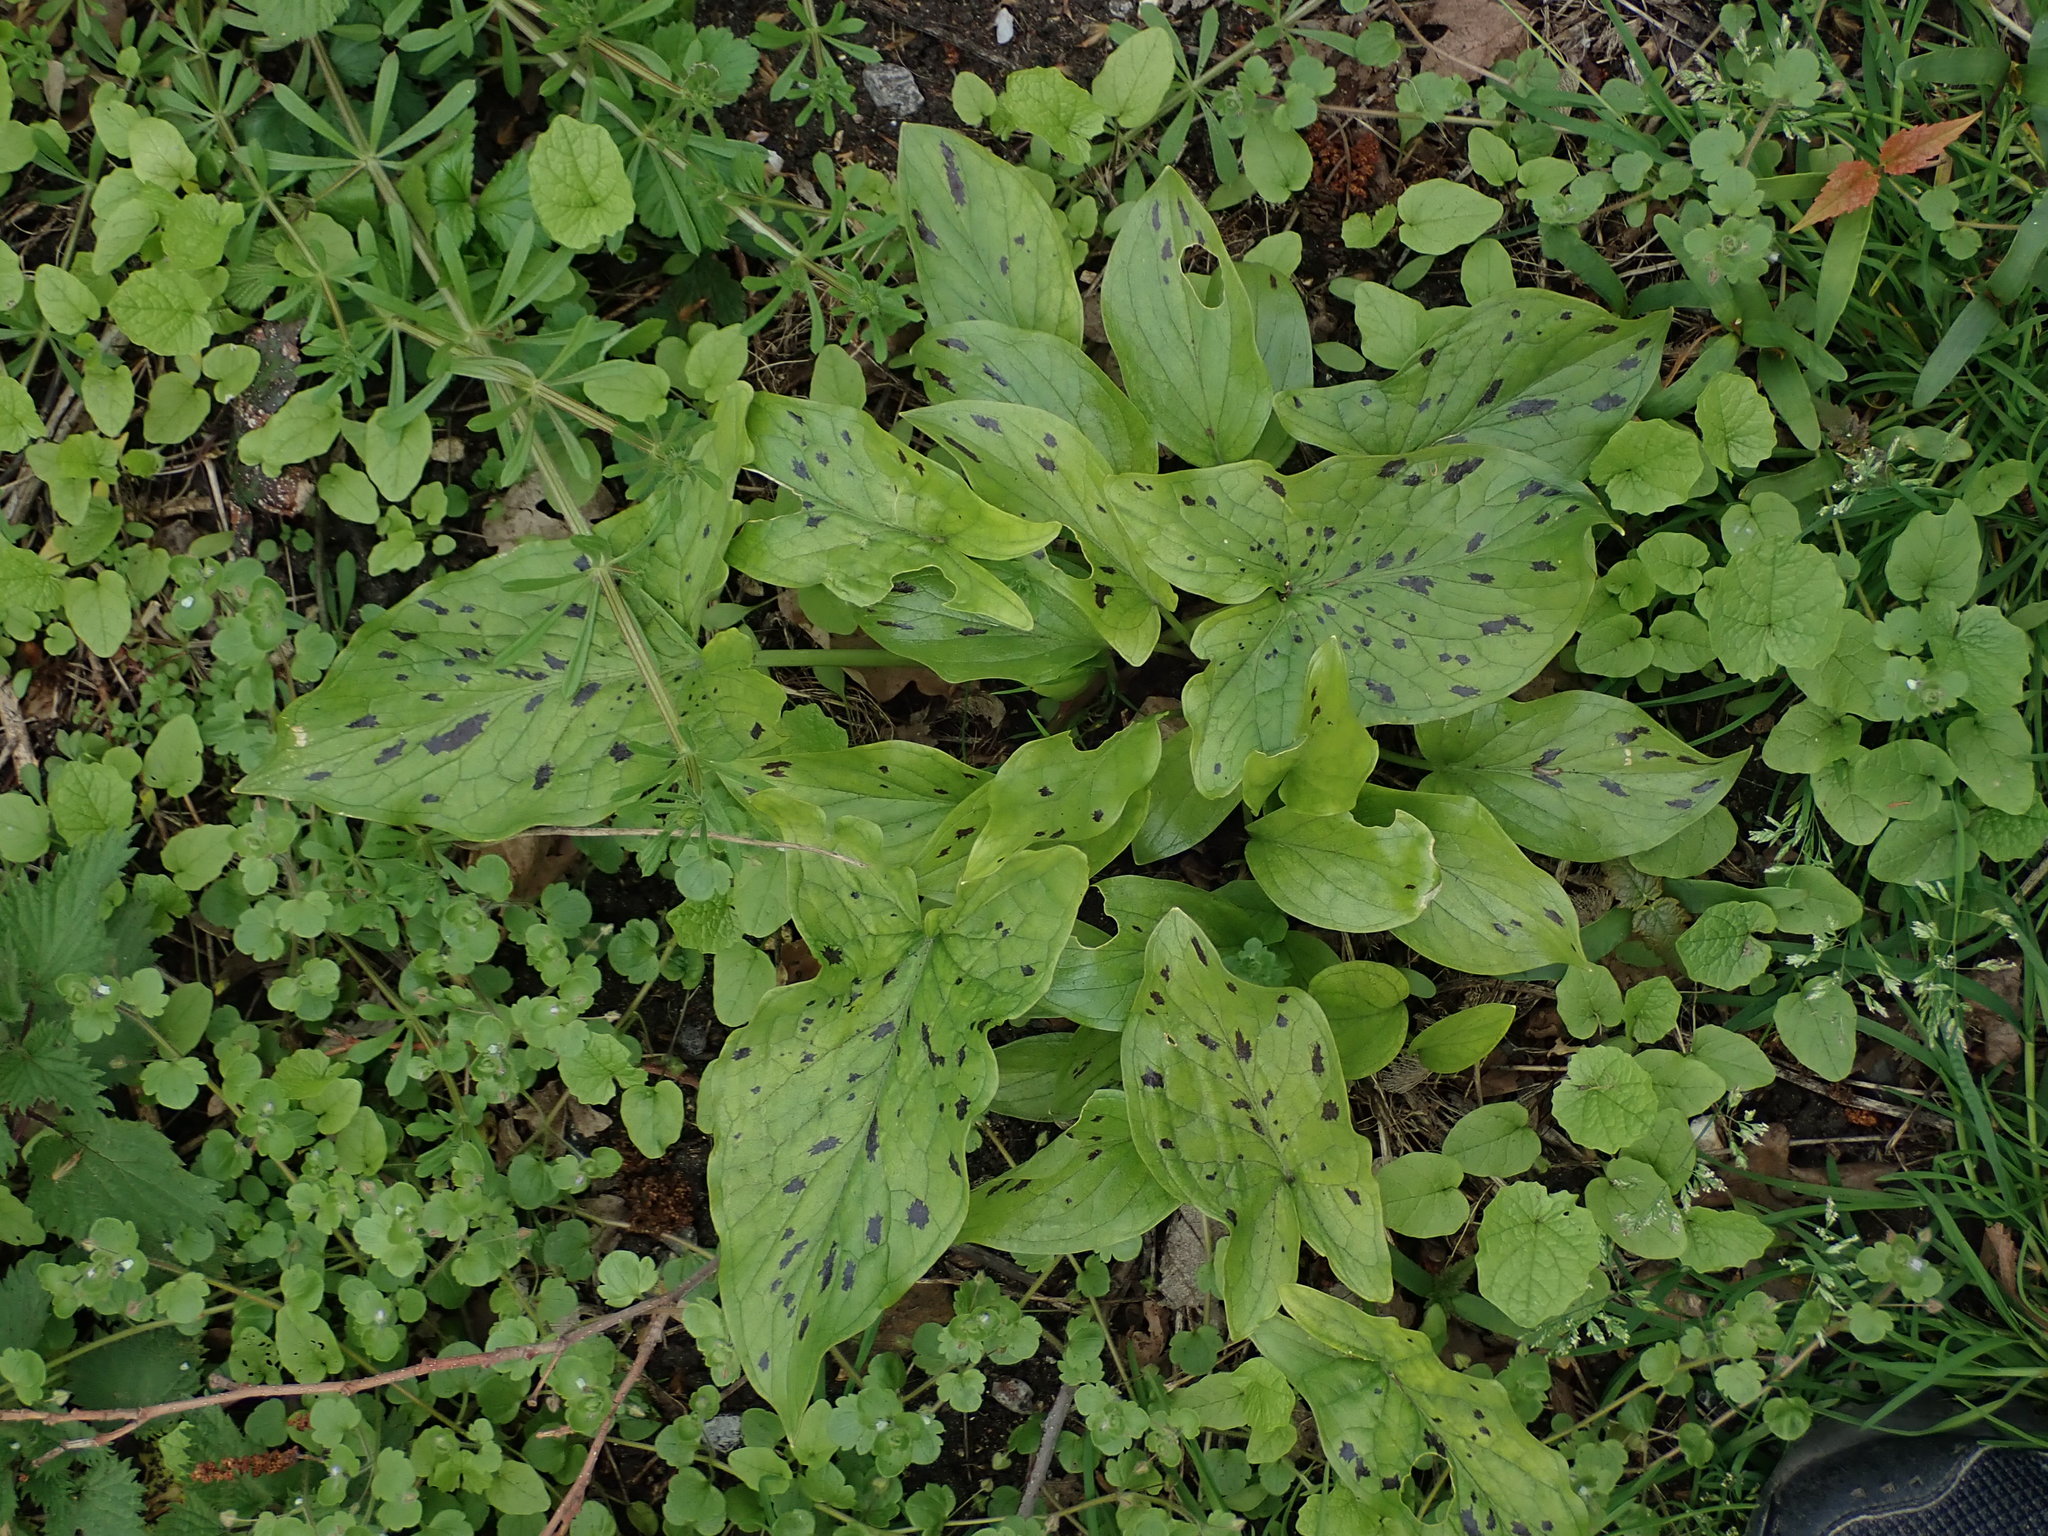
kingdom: Plantae
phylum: Tracheophyta
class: Liliopsida
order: Alismatales
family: Araceae
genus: Arum
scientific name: Arum maculatum
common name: Lords-and-ladies
